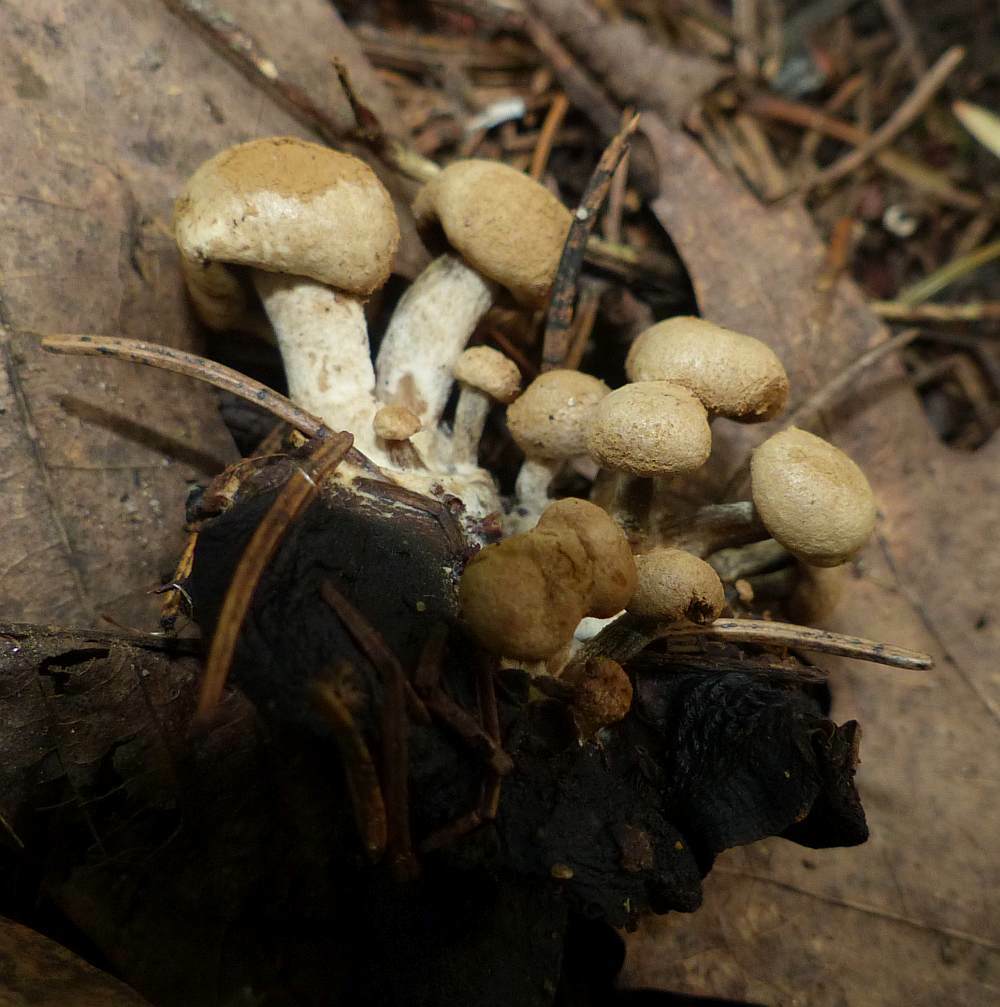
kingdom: Fungi
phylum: Basidiomycota
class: Agaricomycetes
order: Agaricales
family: Lyophyllaceae
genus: Asterophora
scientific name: Asterophora lycoperdoides
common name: Pick-a-back toadstool
